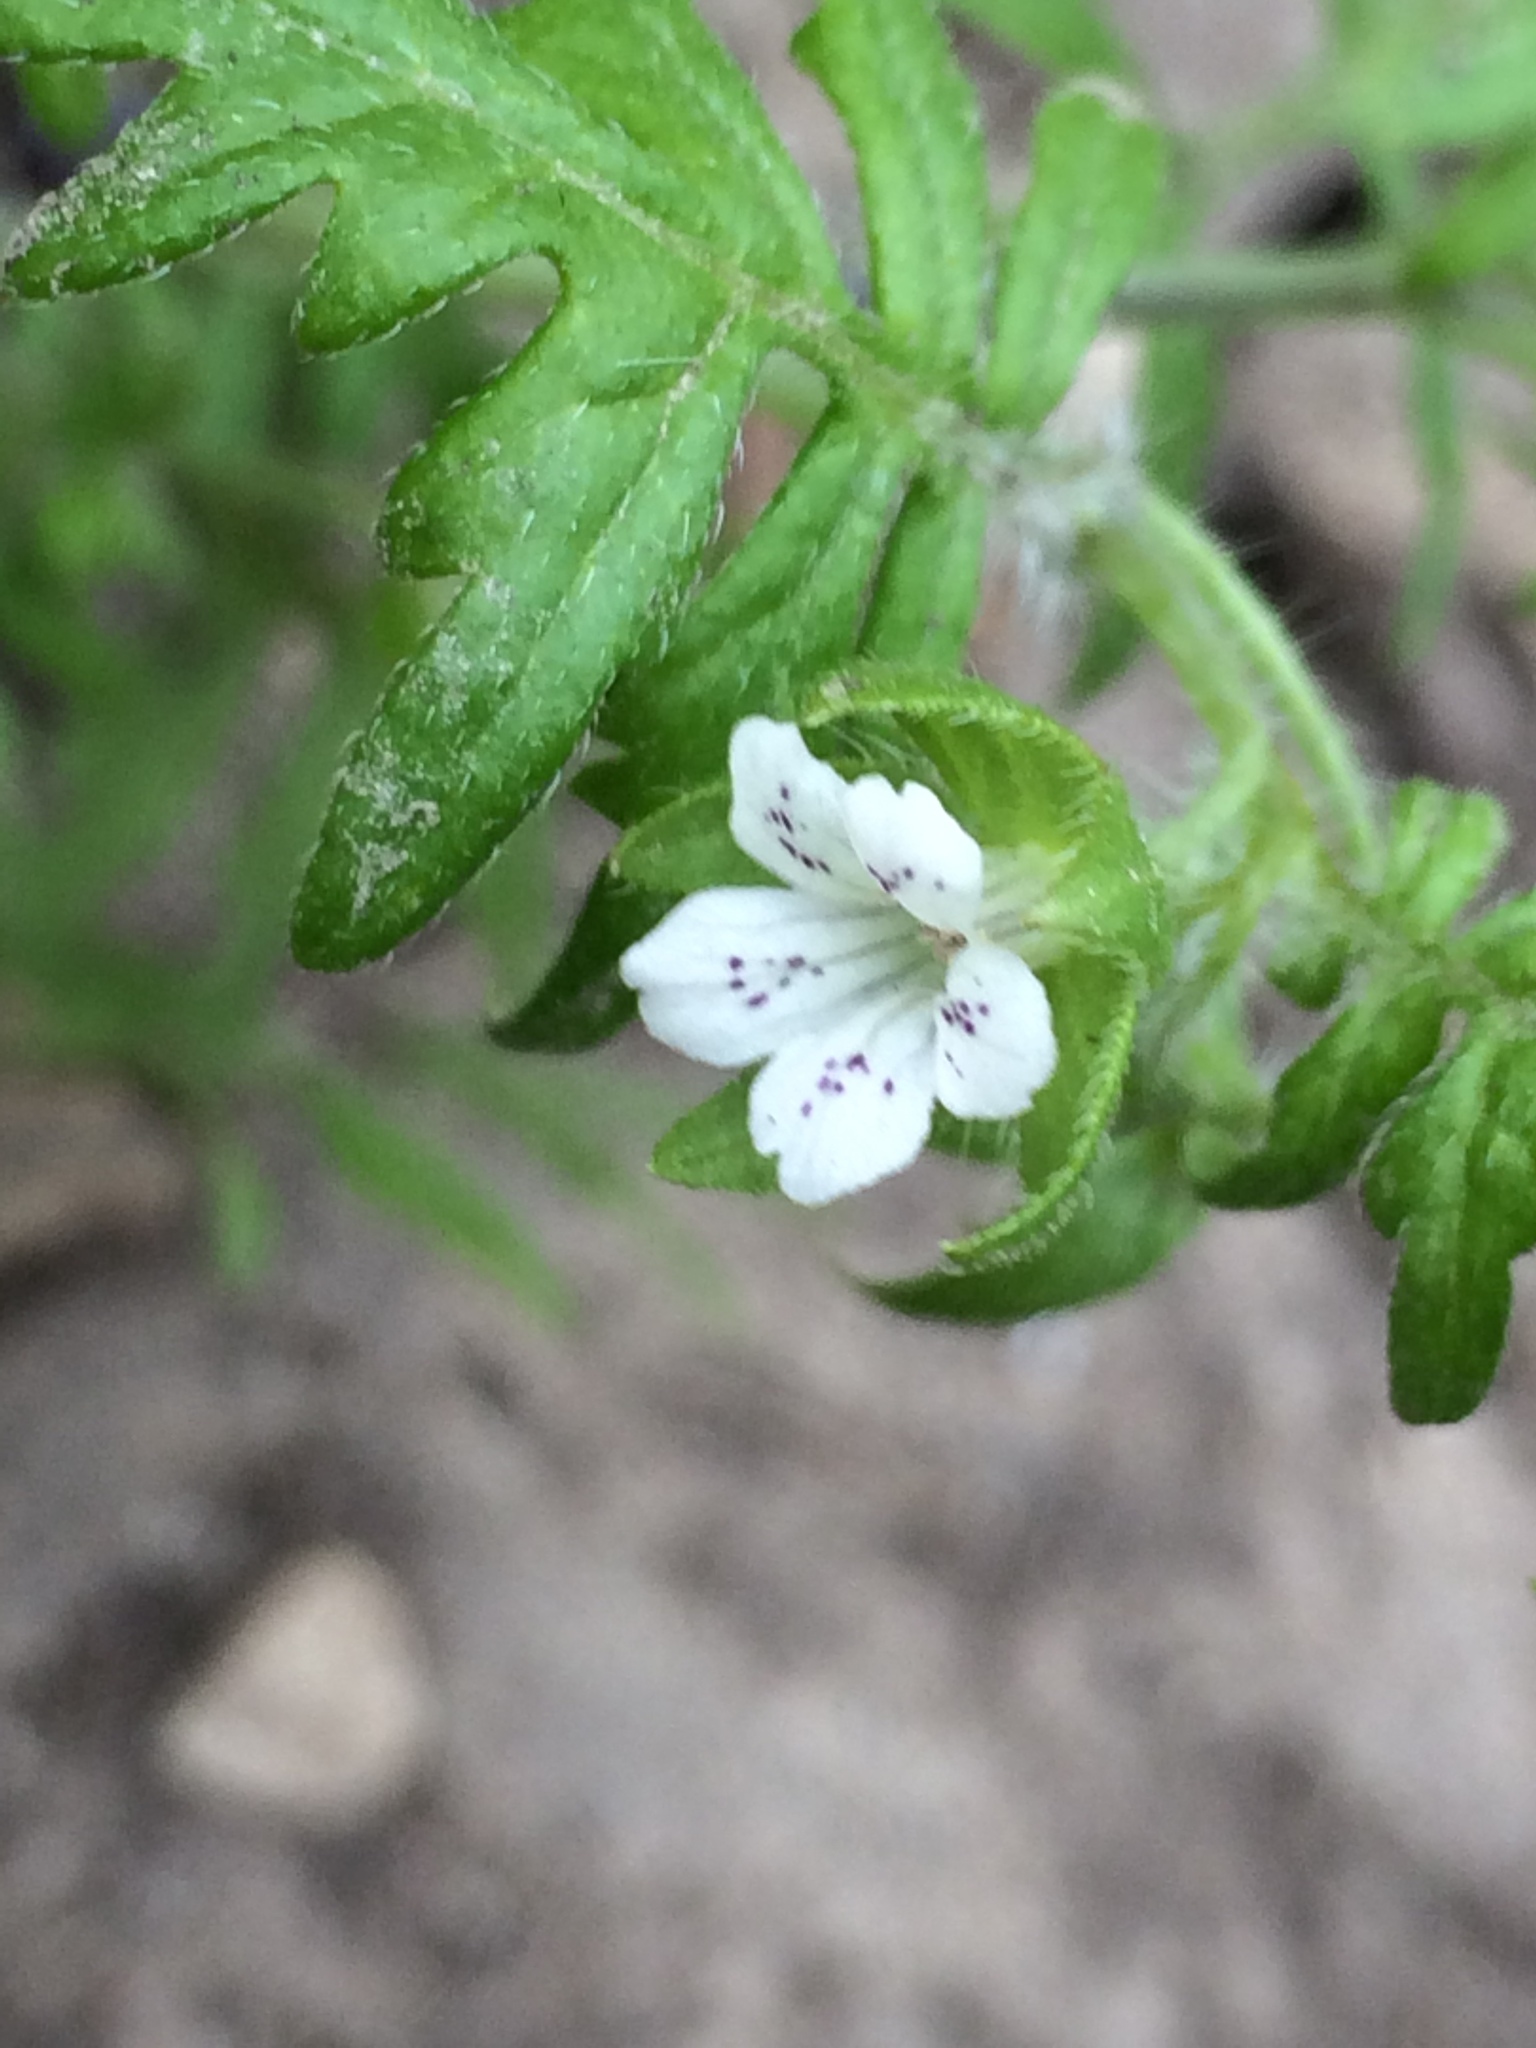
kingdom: Plantae
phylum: Tracheophyta
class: Magnoliopsida
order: Boraginales
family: Hydrophyllaceae
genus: Ellisia
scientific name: Ellisia nyctelea
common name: Aunt lucy
